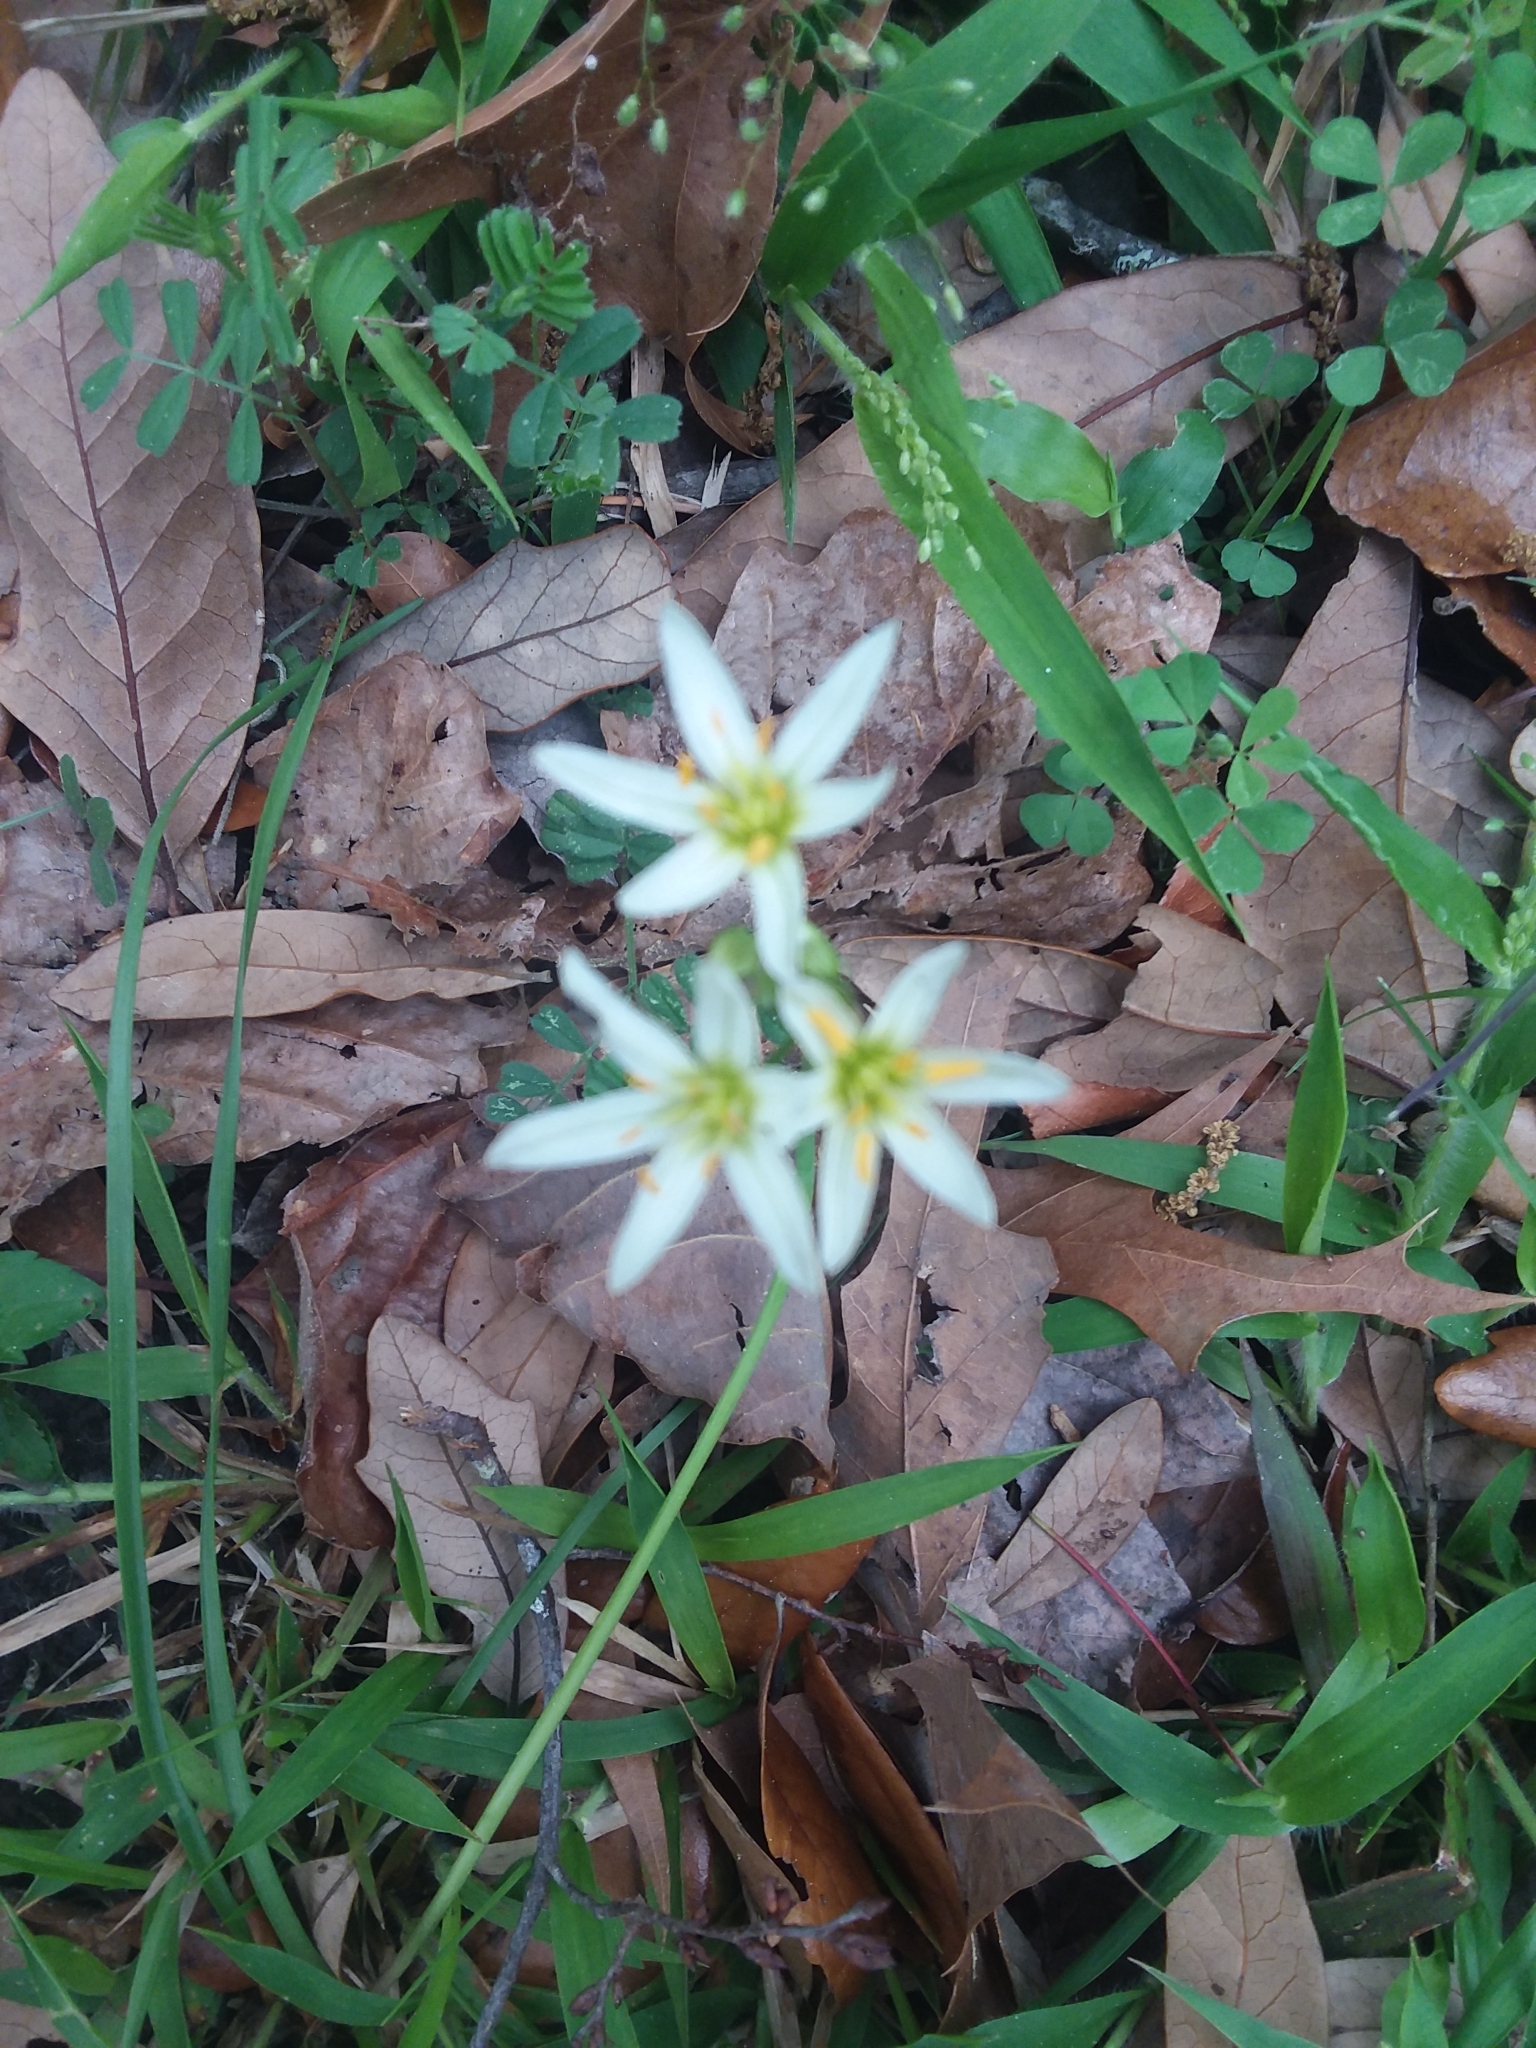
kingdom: Plantae
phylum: Tracheophyta
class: Liliopsida
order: Asparagales
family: Amaryllidaceae
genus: Nothoscordum
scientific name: Nothoscordum bivalve
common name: Crow-poison
